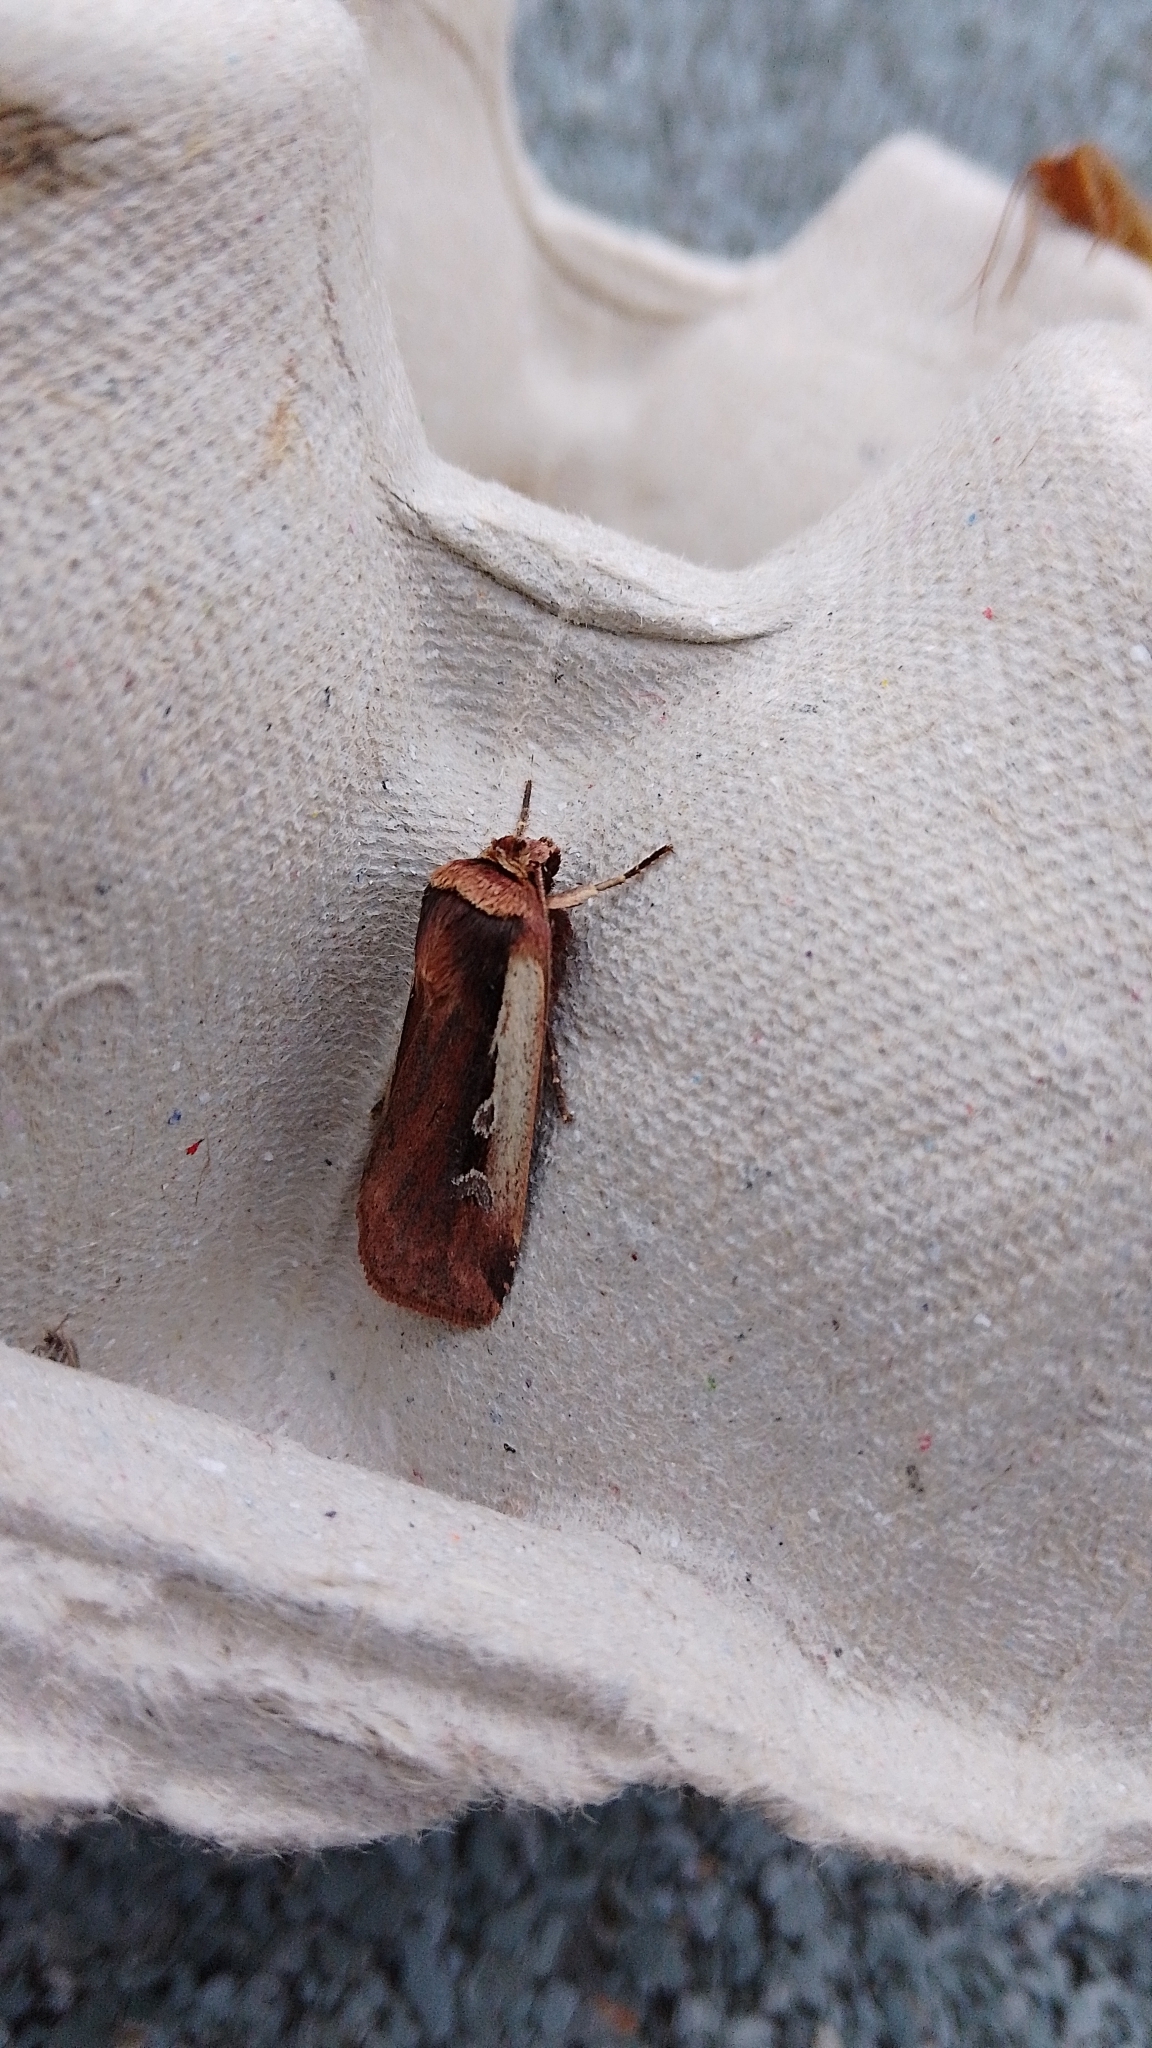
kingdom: Animalia
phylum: Arthropoda
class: Insecta
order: Lepidoptera
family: Noctuidae
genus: Ochropleura
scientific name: Ochropleura plecta
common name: Flame shoulder
